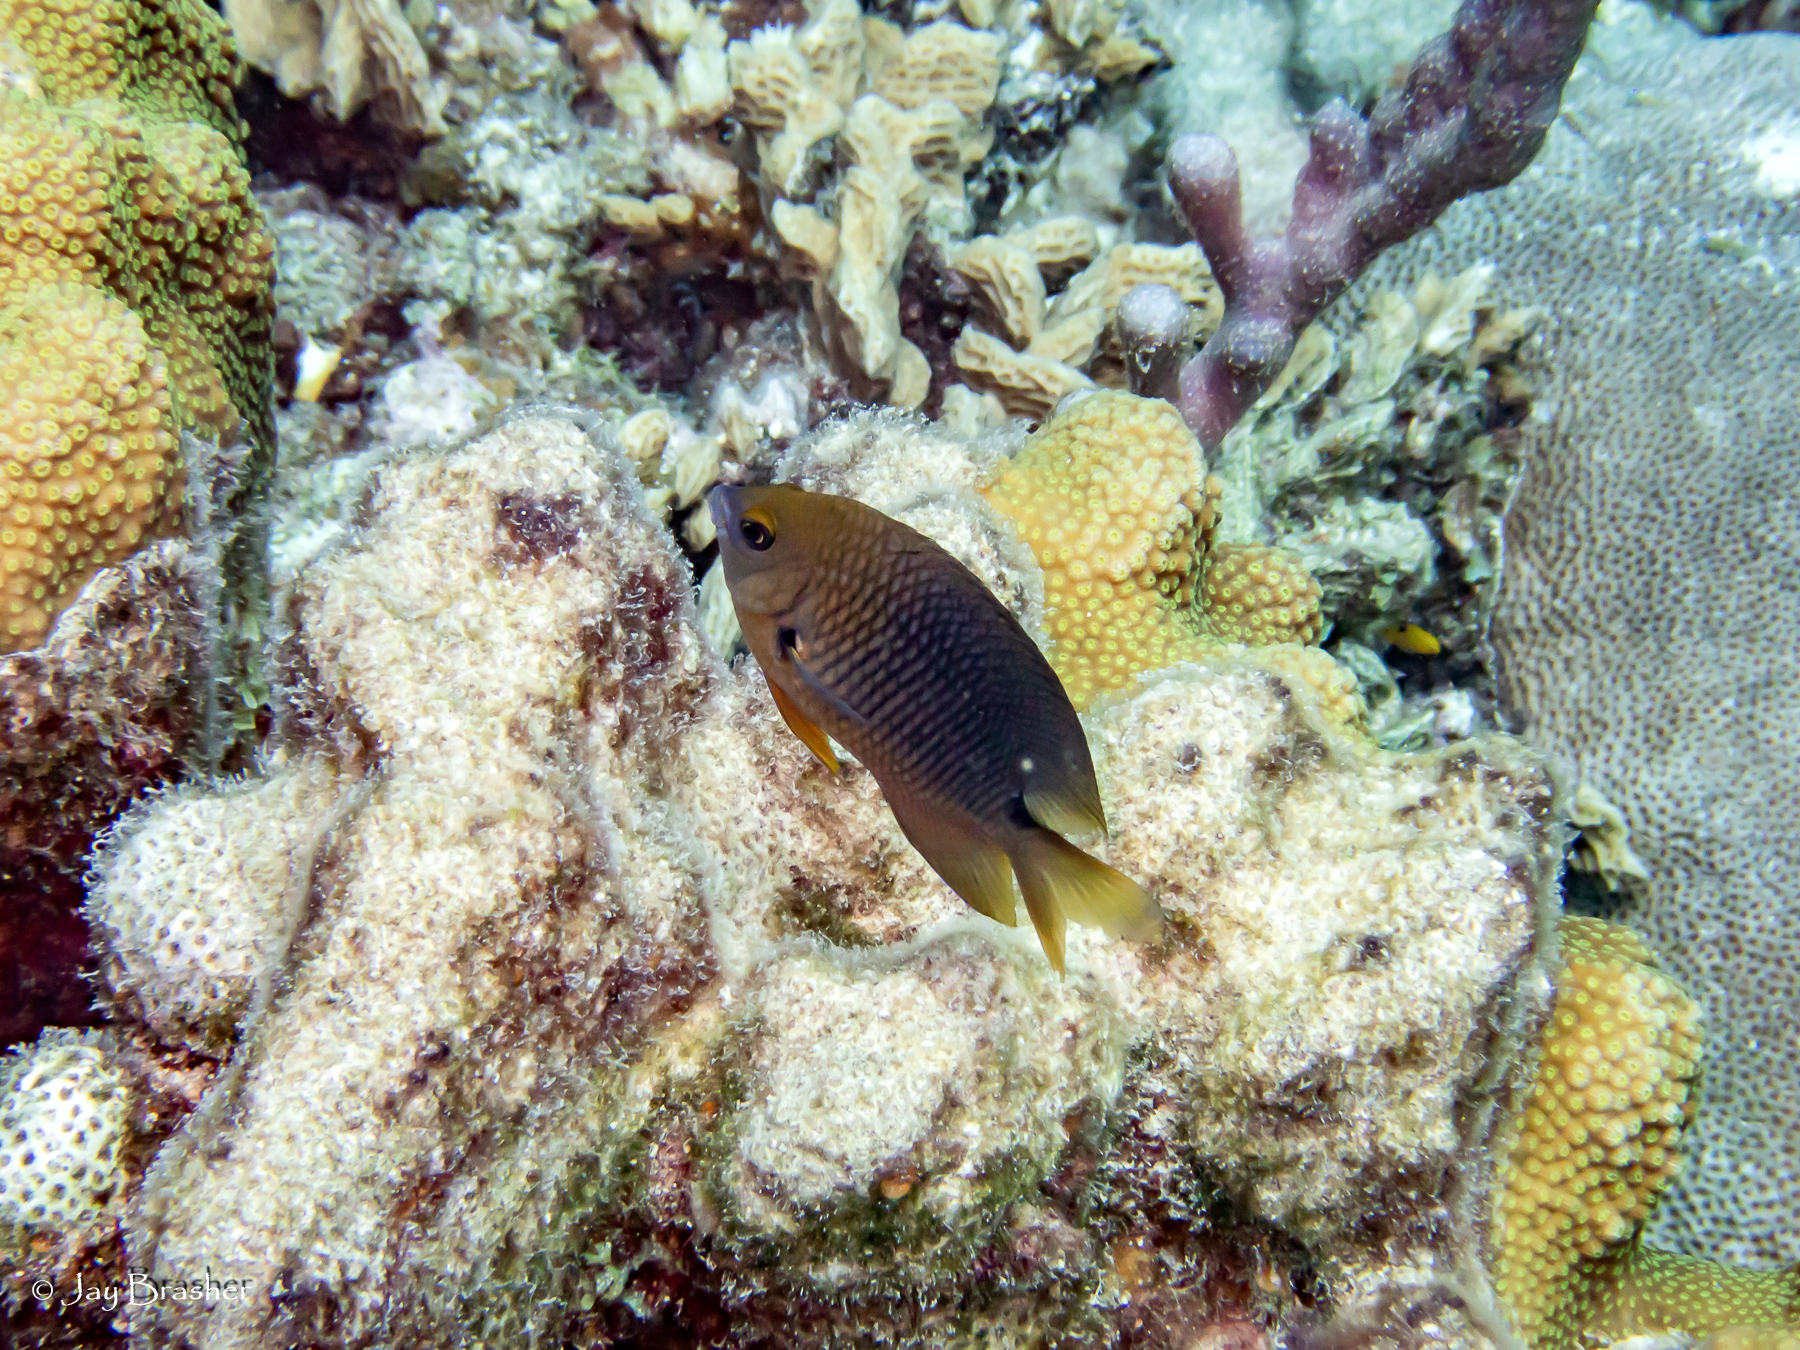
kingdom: Animalia
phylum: Cnidaria
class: Anthozoa
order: Scleractinia
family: Agariciidae
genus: Agaricia
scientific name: Agaricia agaricites
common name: Lettuce coral
